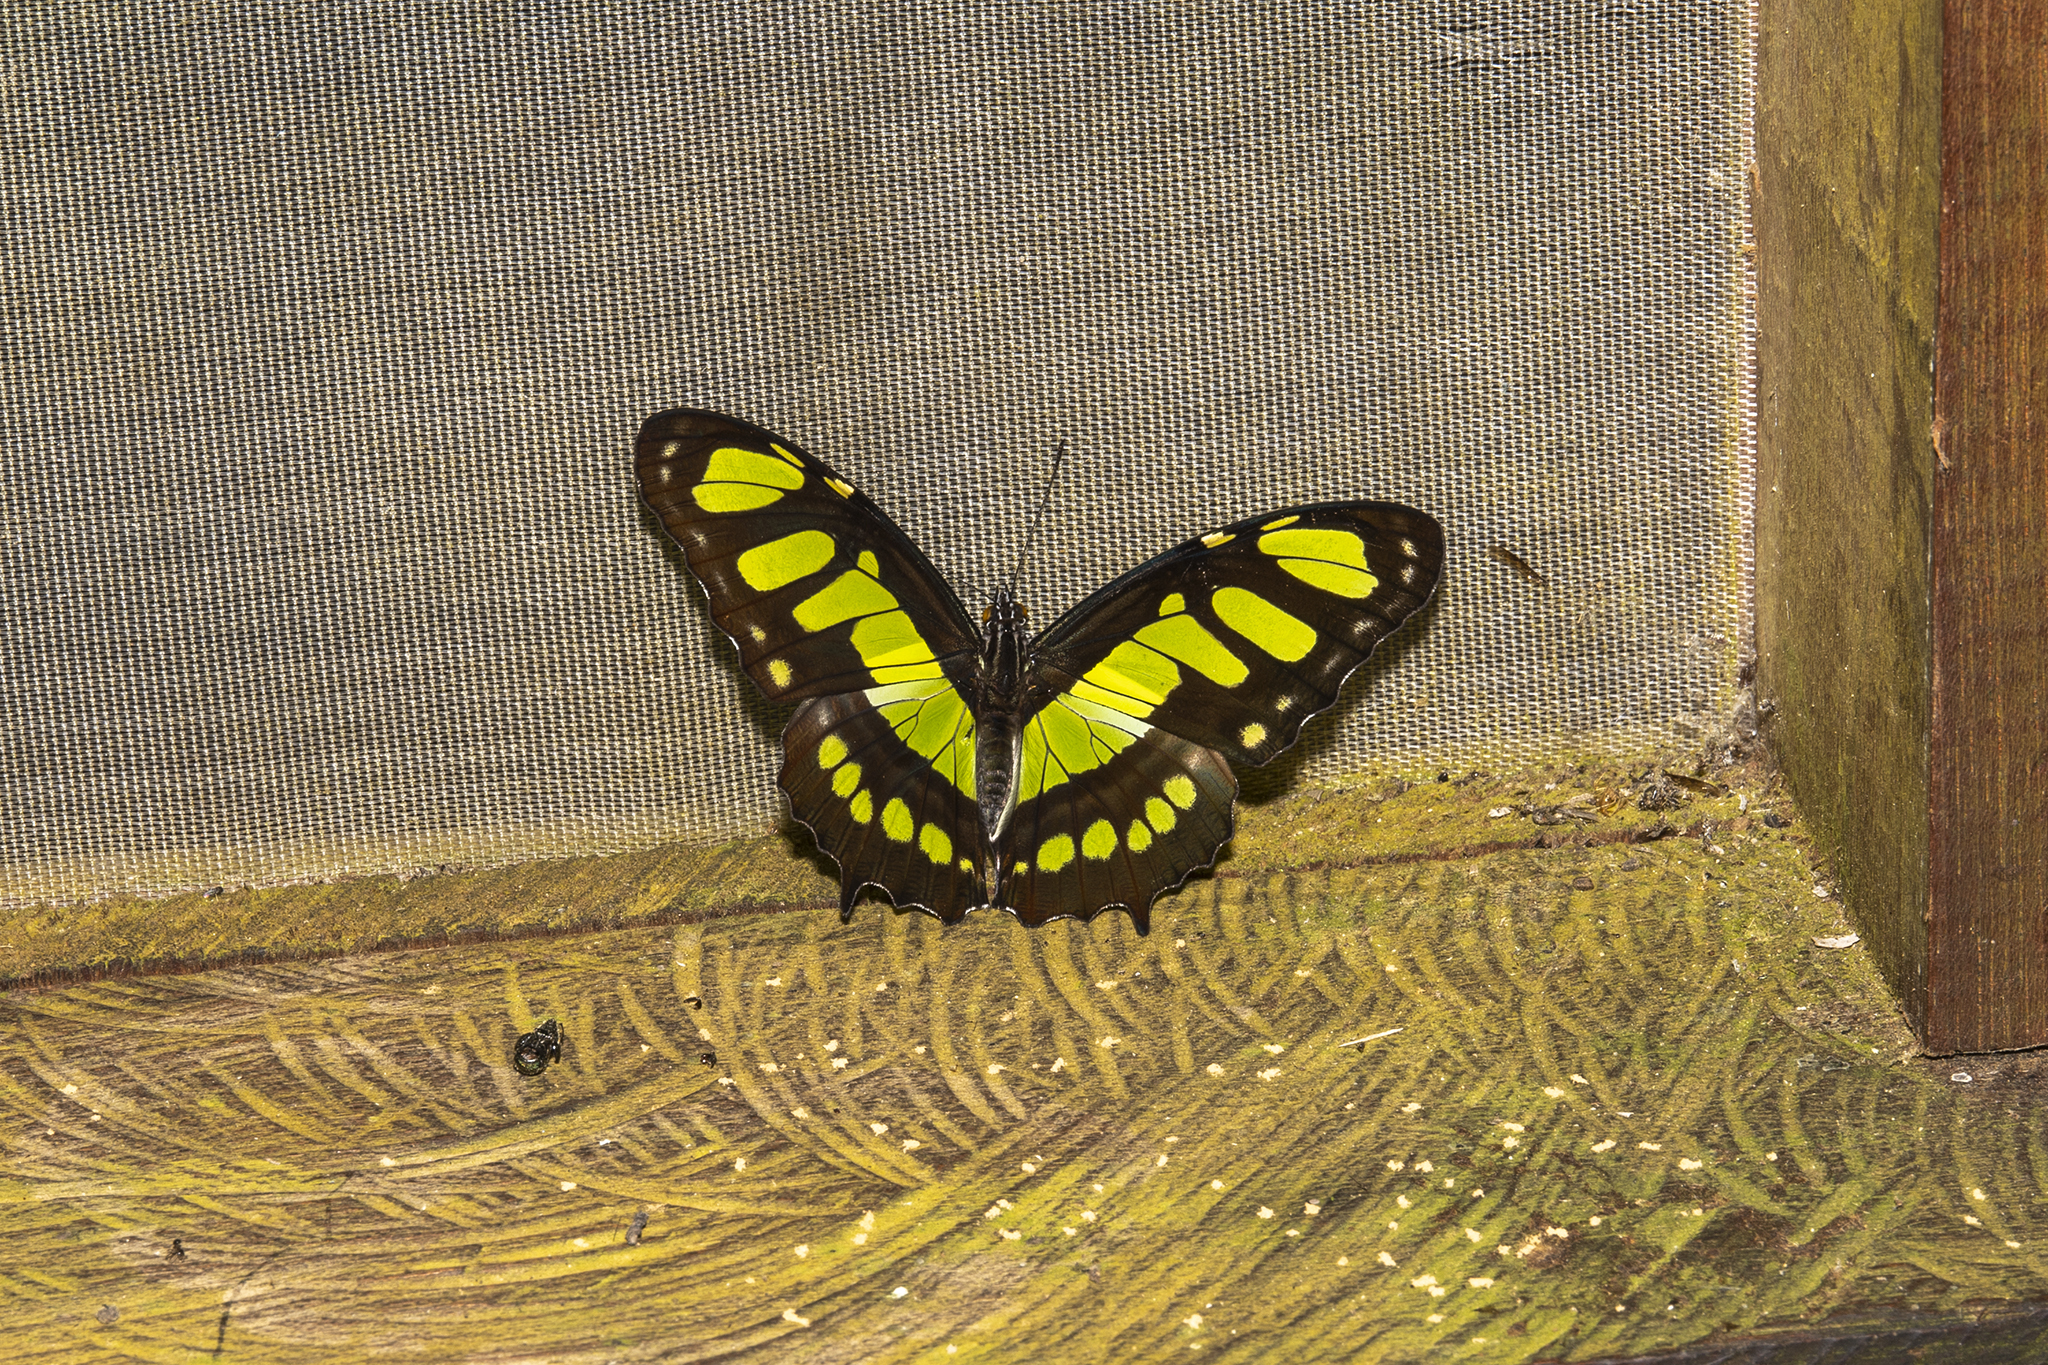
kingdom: Animalia
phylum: Arthropoda
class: Insecta
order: Lepidoptera
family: Nymphalidae
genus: Siproeta
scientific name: Siproeta stelenes
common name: Malachite
